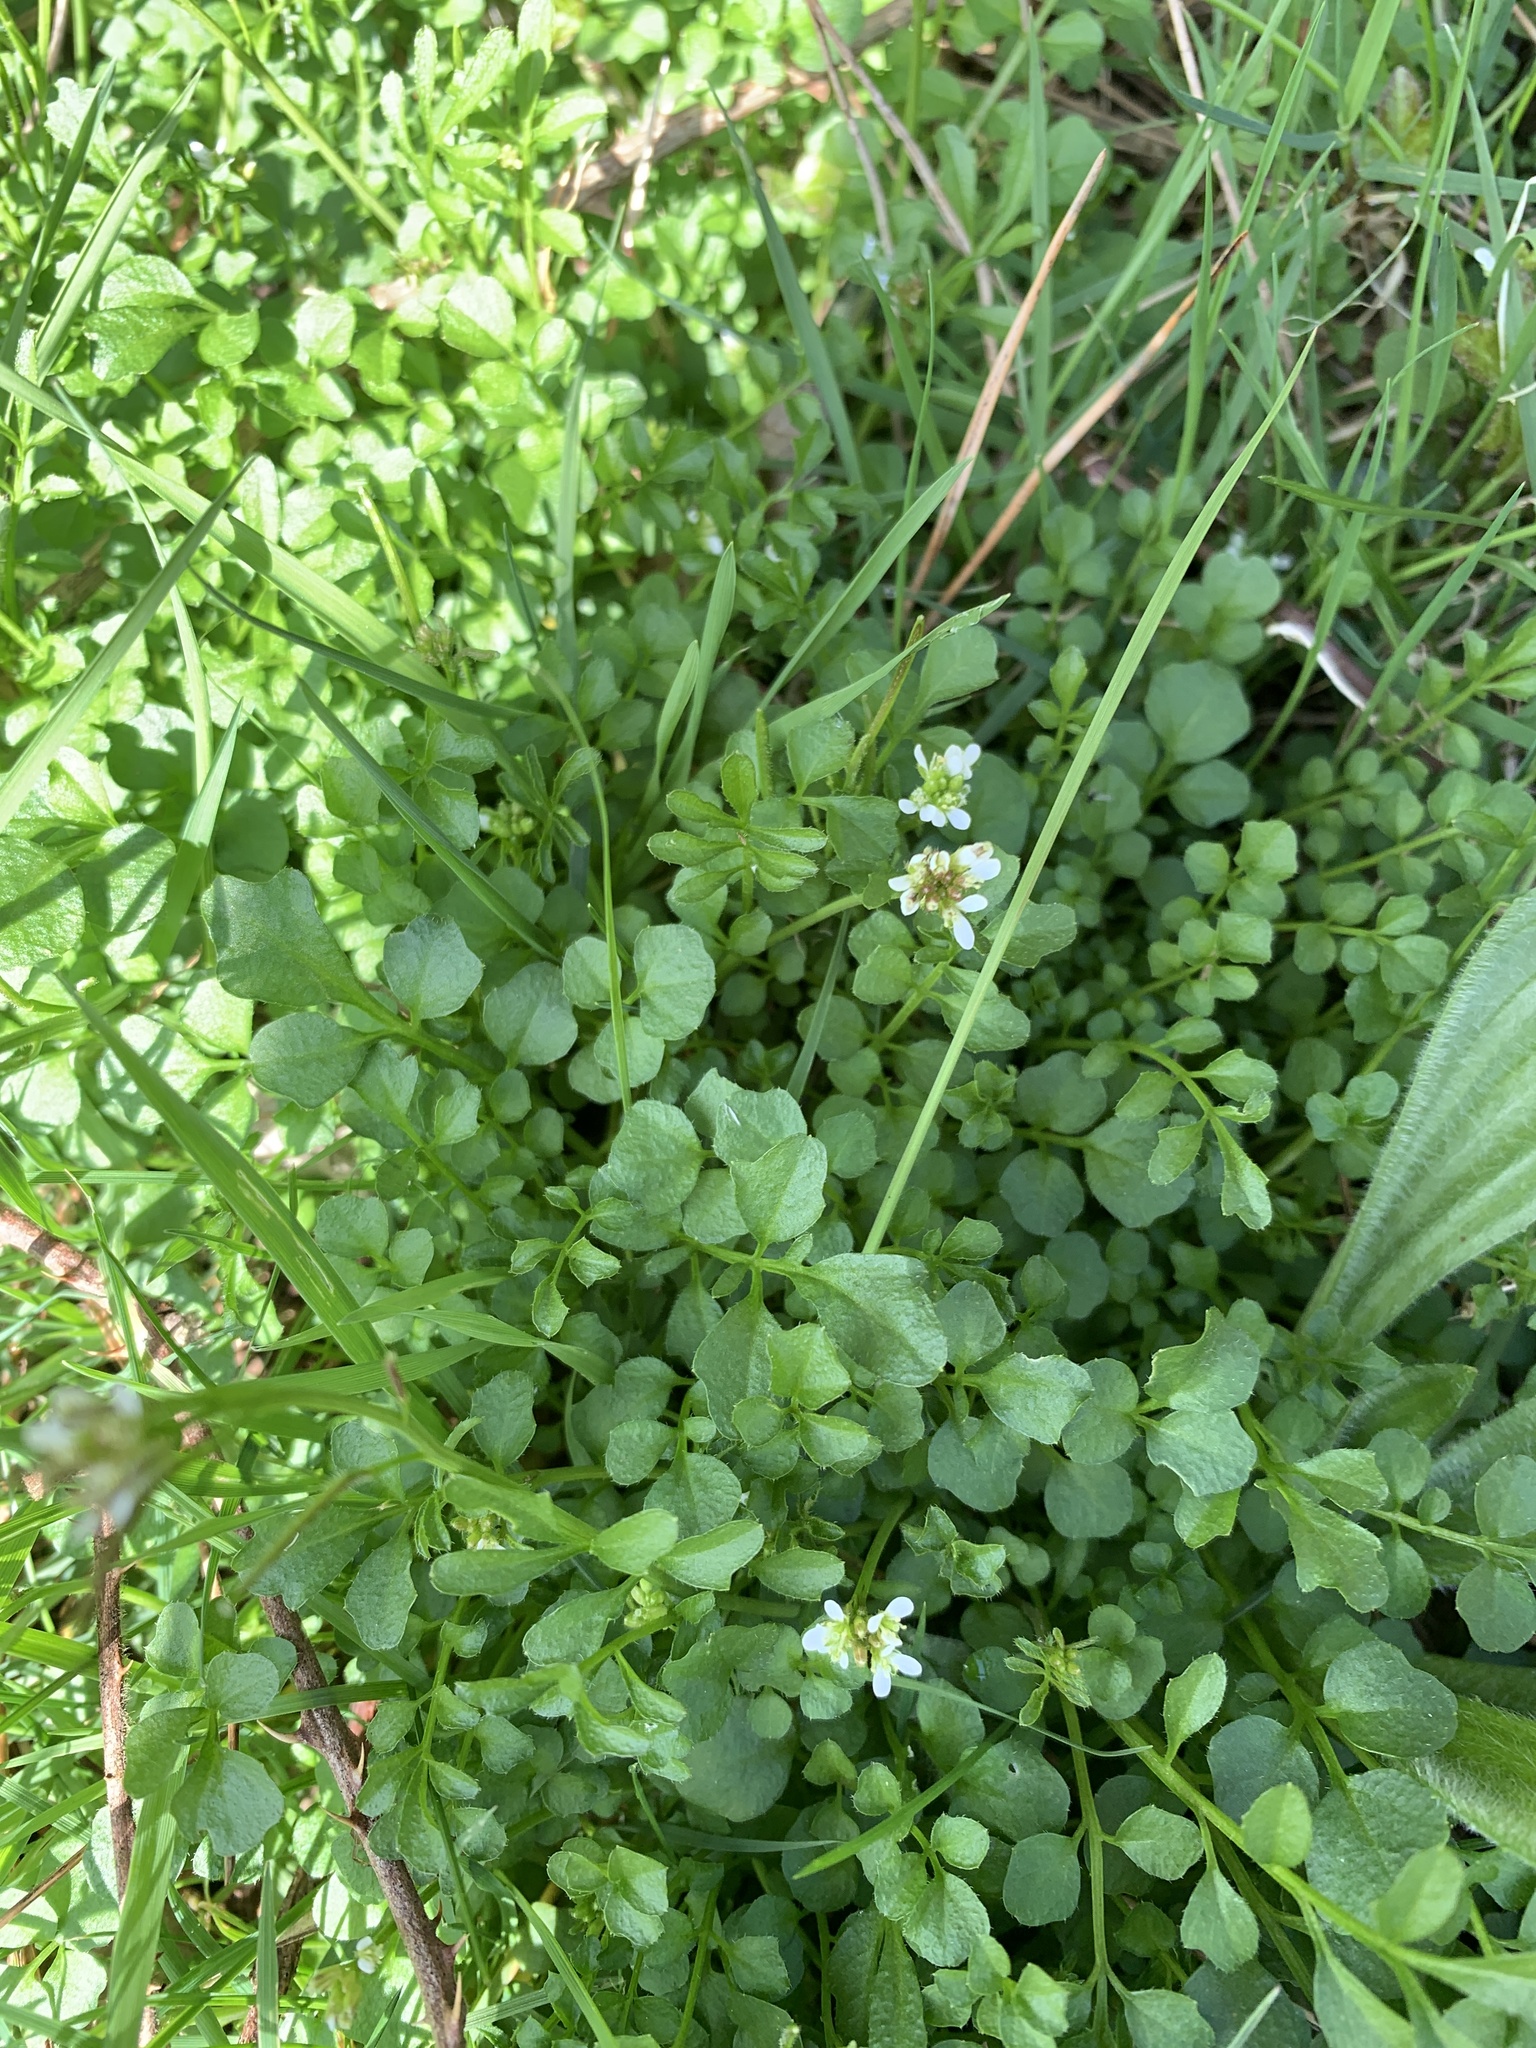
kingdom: Plantae
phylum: Tracheophyta
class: Magnoliopsida
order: Brassicales
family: Brassicaceae
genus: Cardamine
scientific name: Cardamine hirsuta
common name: Hairy bittercress
